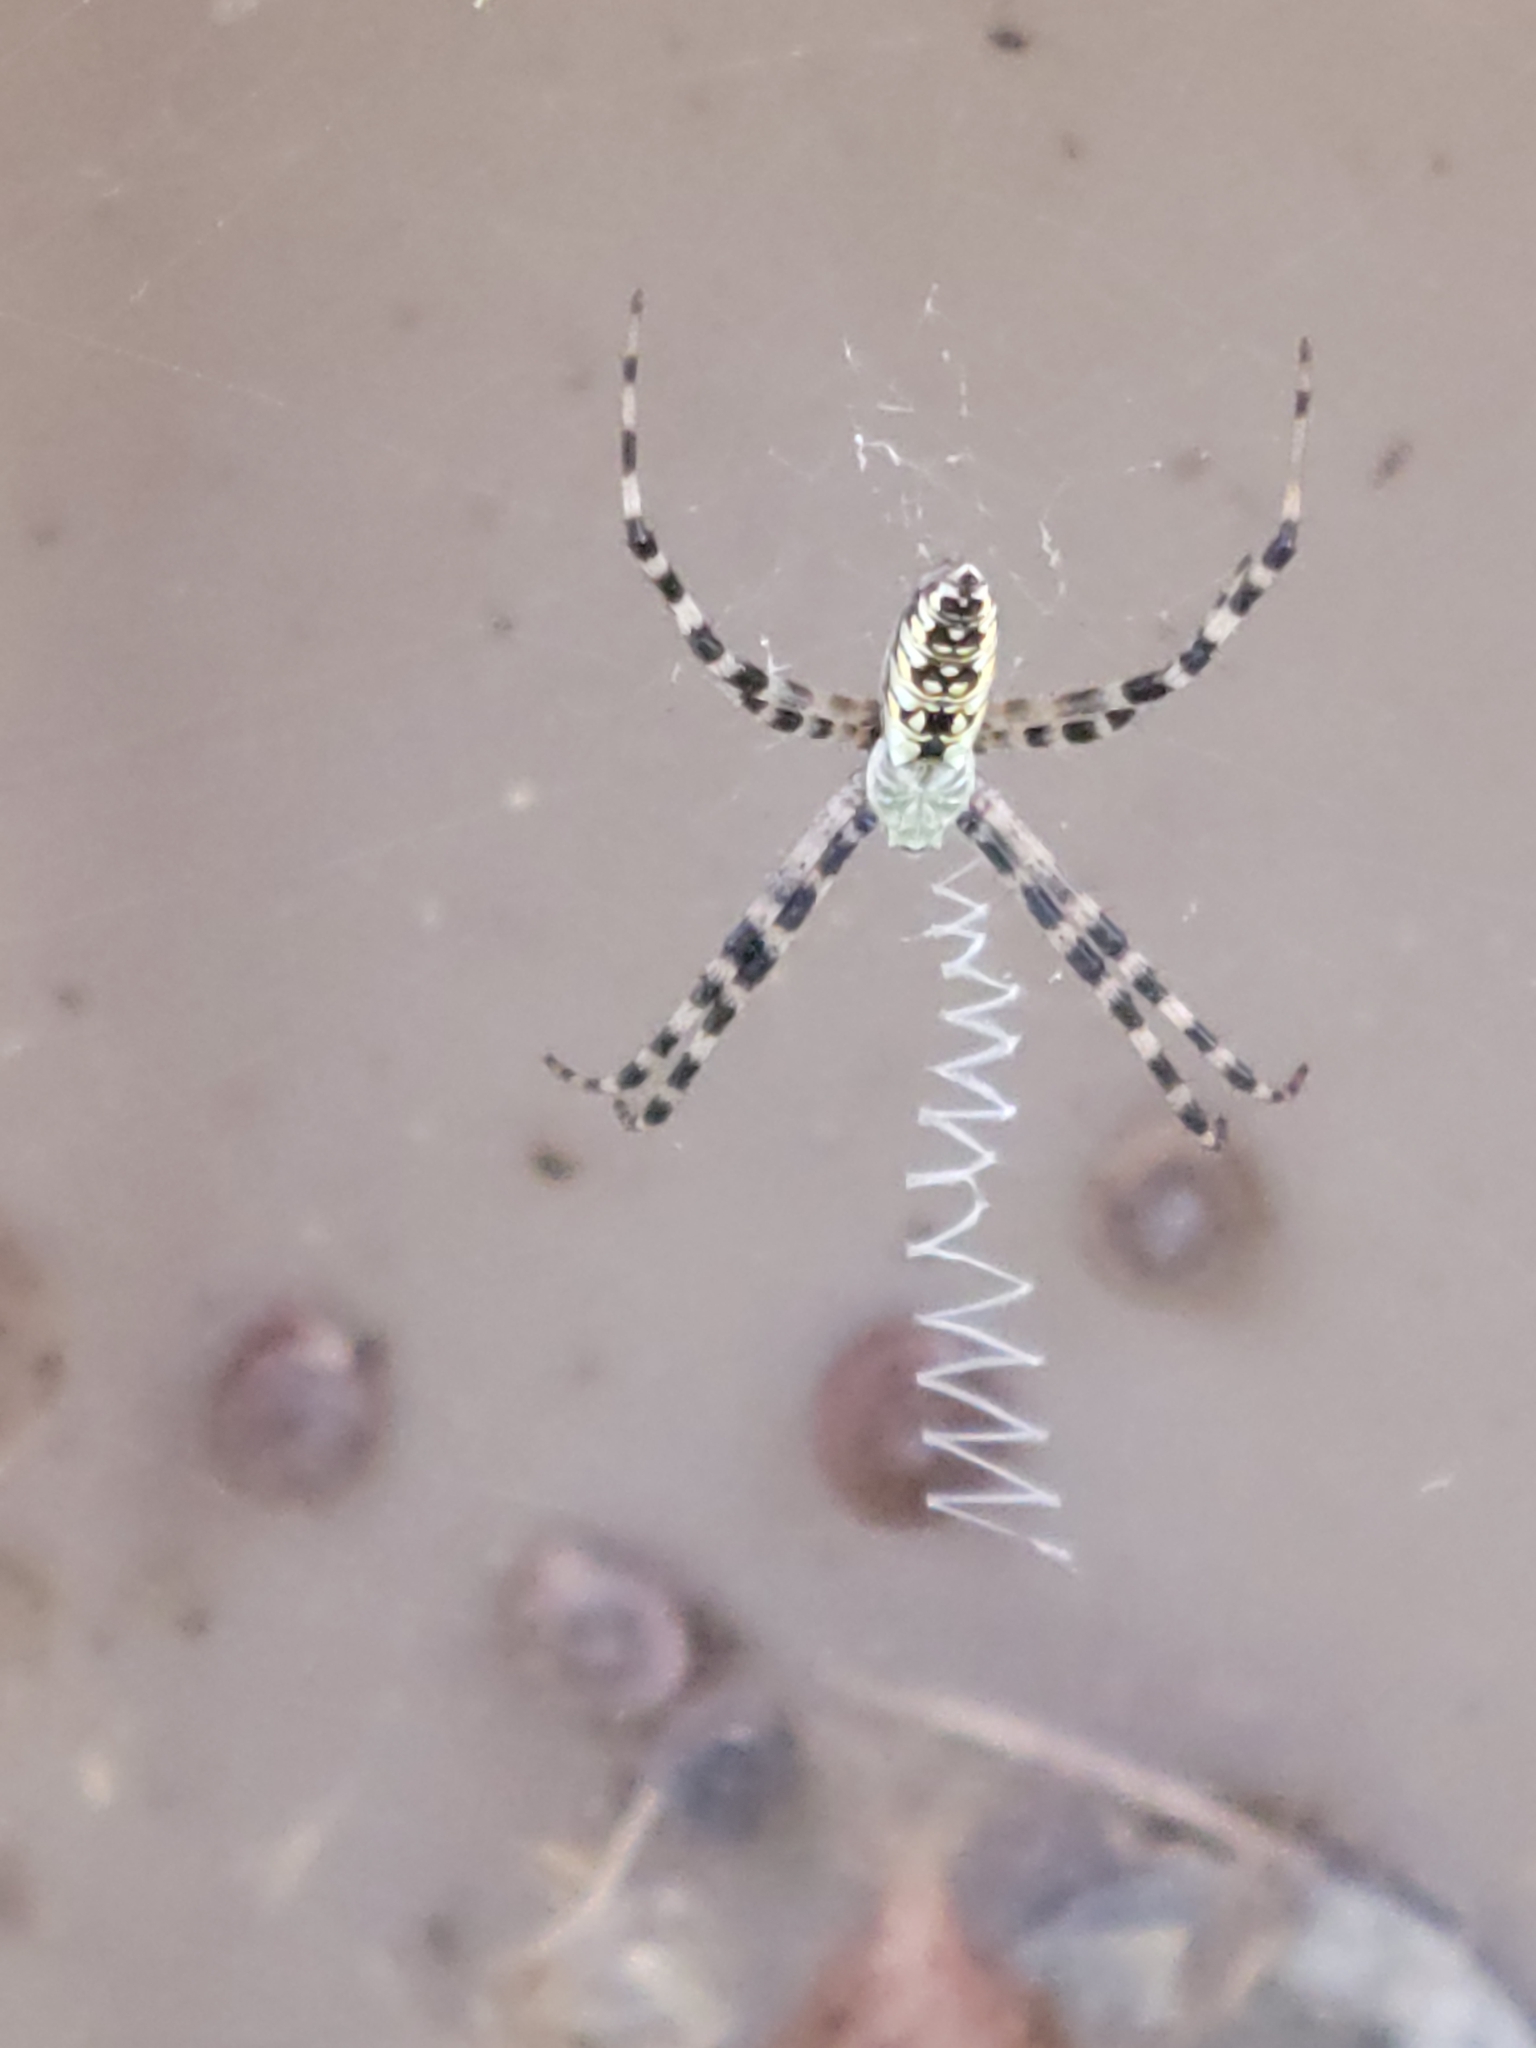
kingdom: Animalia
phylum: Arthropoda
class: Arachnida
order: Araneae
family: Araneidae
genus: Argiope
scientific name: Argiope aurantia
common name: Orb weavers
